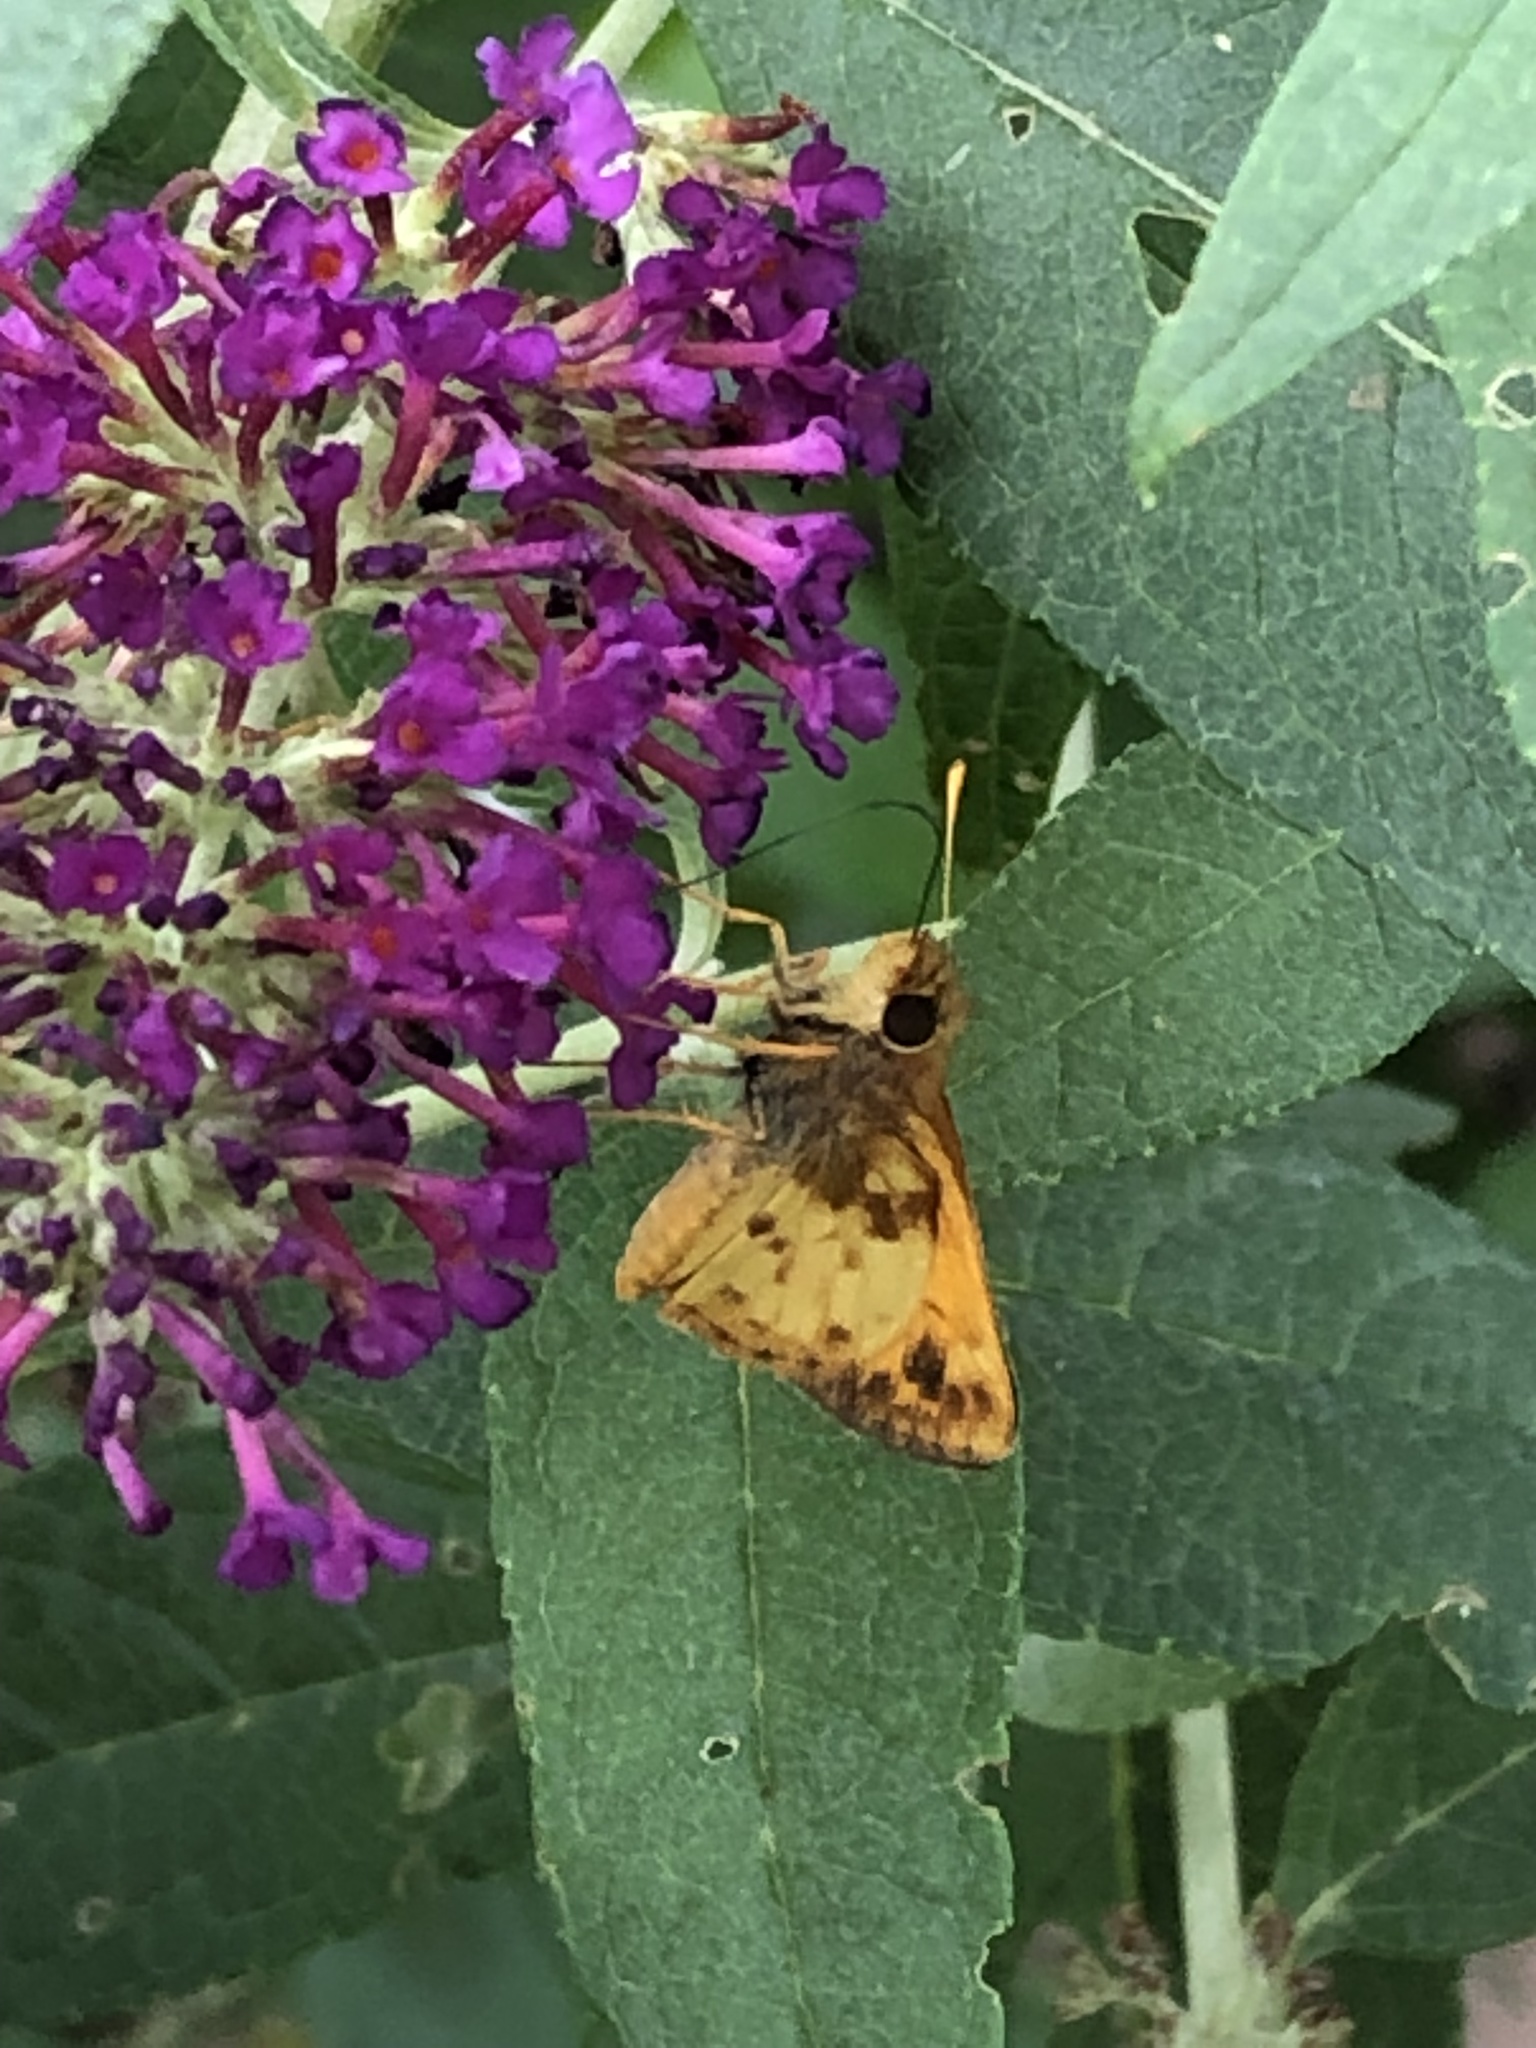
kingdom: Animalia
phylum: Arthropoda
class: Insecta
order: Lepidoptera
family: Hesperiidae
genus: Lon
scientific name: Lon zabulon
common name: Zabulon skipper
